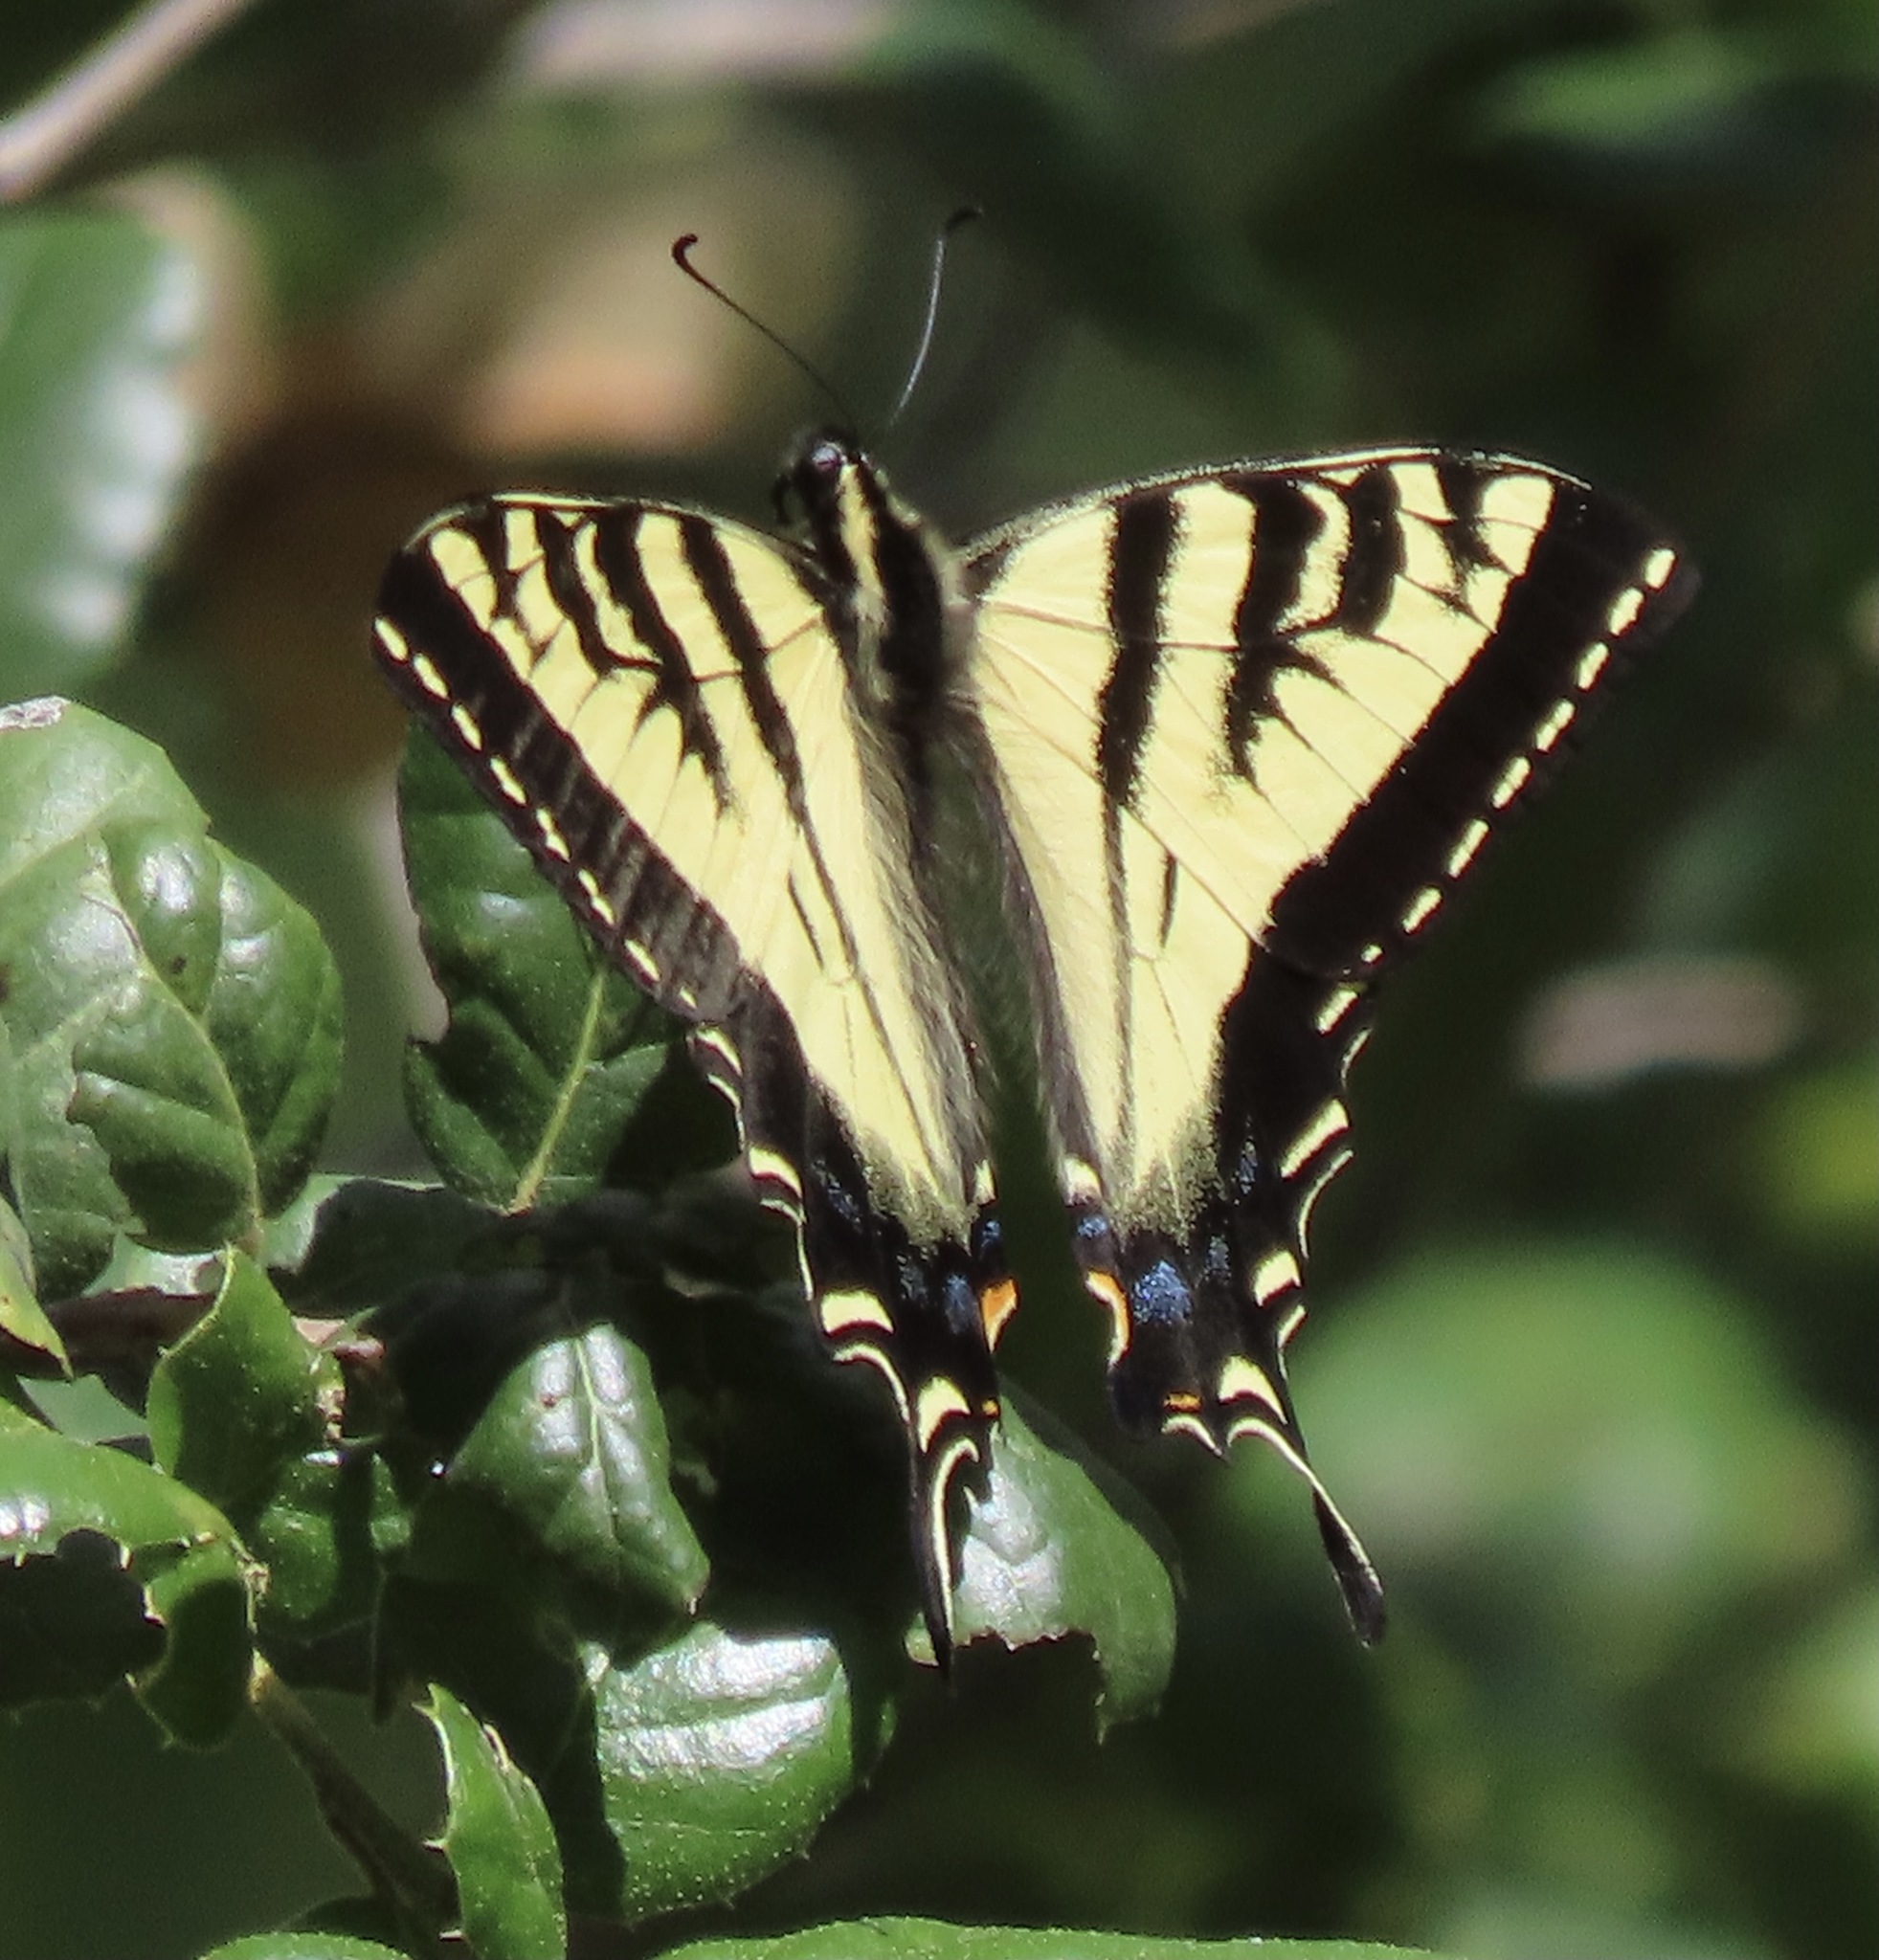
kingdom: Animalia
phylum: Arthropoda
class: Insecta
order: Lepidoptera
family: Papilionidae
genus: Papilio
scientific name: Papilio rutulus
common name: Western tiger swallowtail
